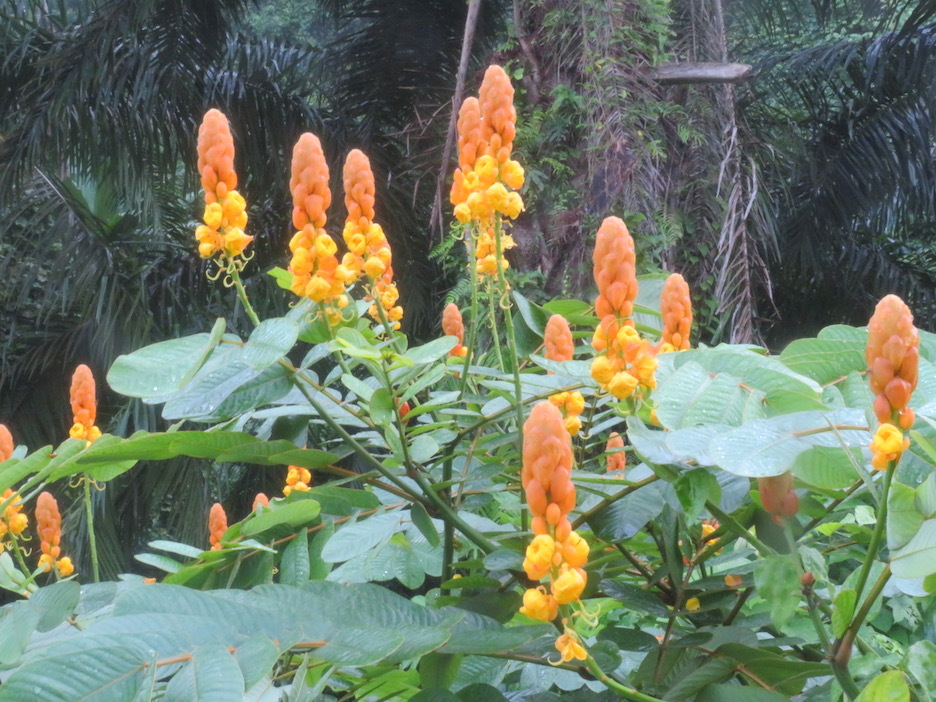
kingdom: Plantae
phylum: Tracheophyta
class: Magnoliopsida
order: Fabales
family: Fabaceae
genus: Senna
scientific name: Senna alata
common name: Emperor's candlesticks
